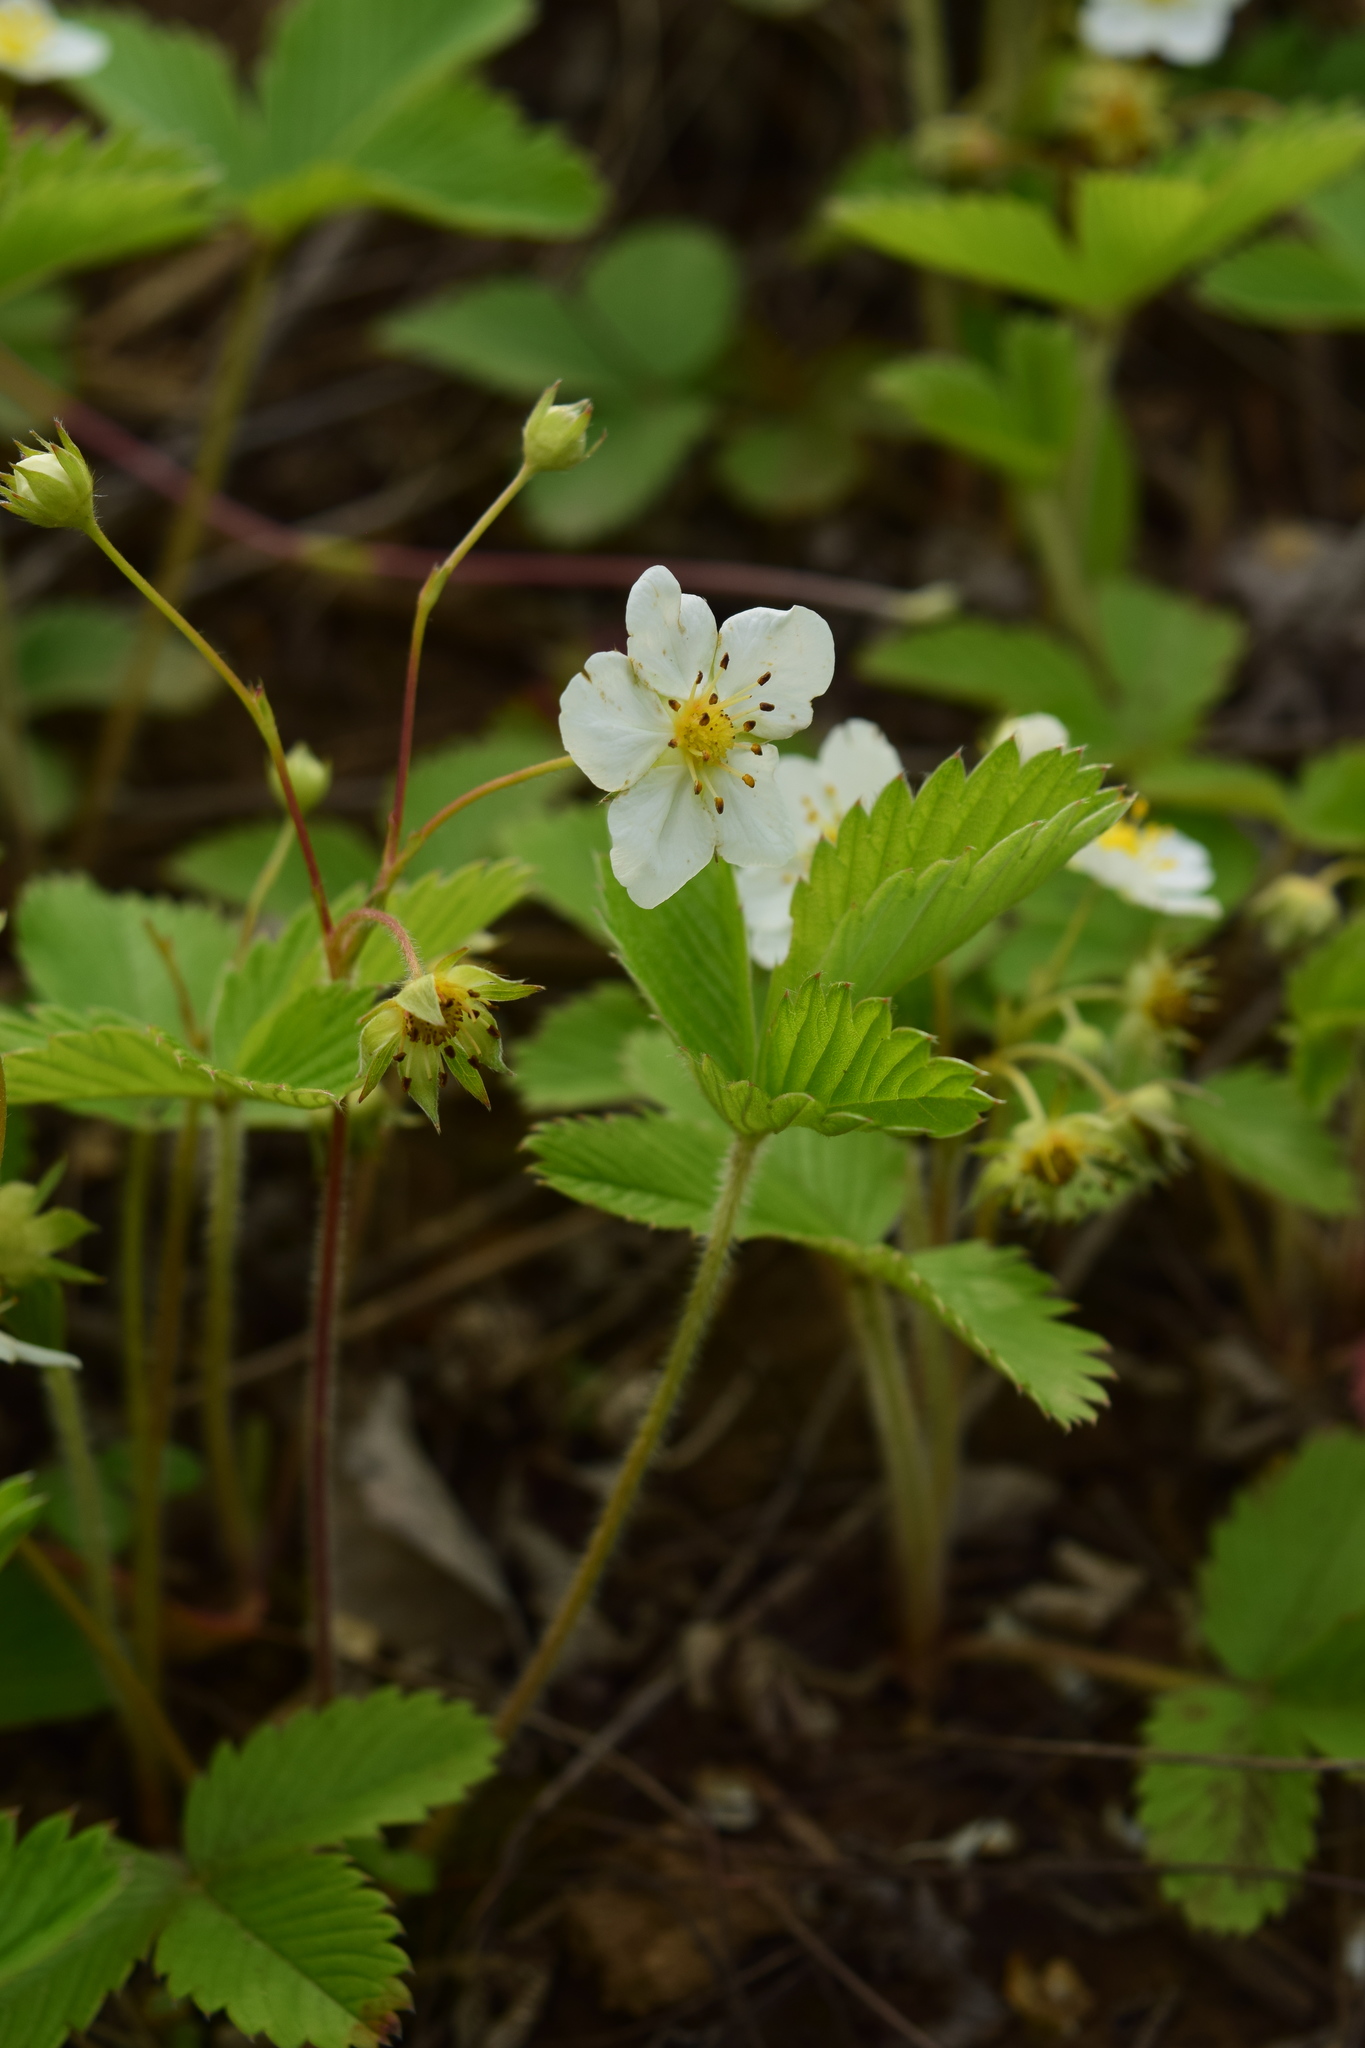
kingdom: Plantae
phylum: Tracheophyta
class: Magnoliopsida
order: Rosales
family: Rosaceae
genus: Fragaria
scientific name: Fragaria viridis
